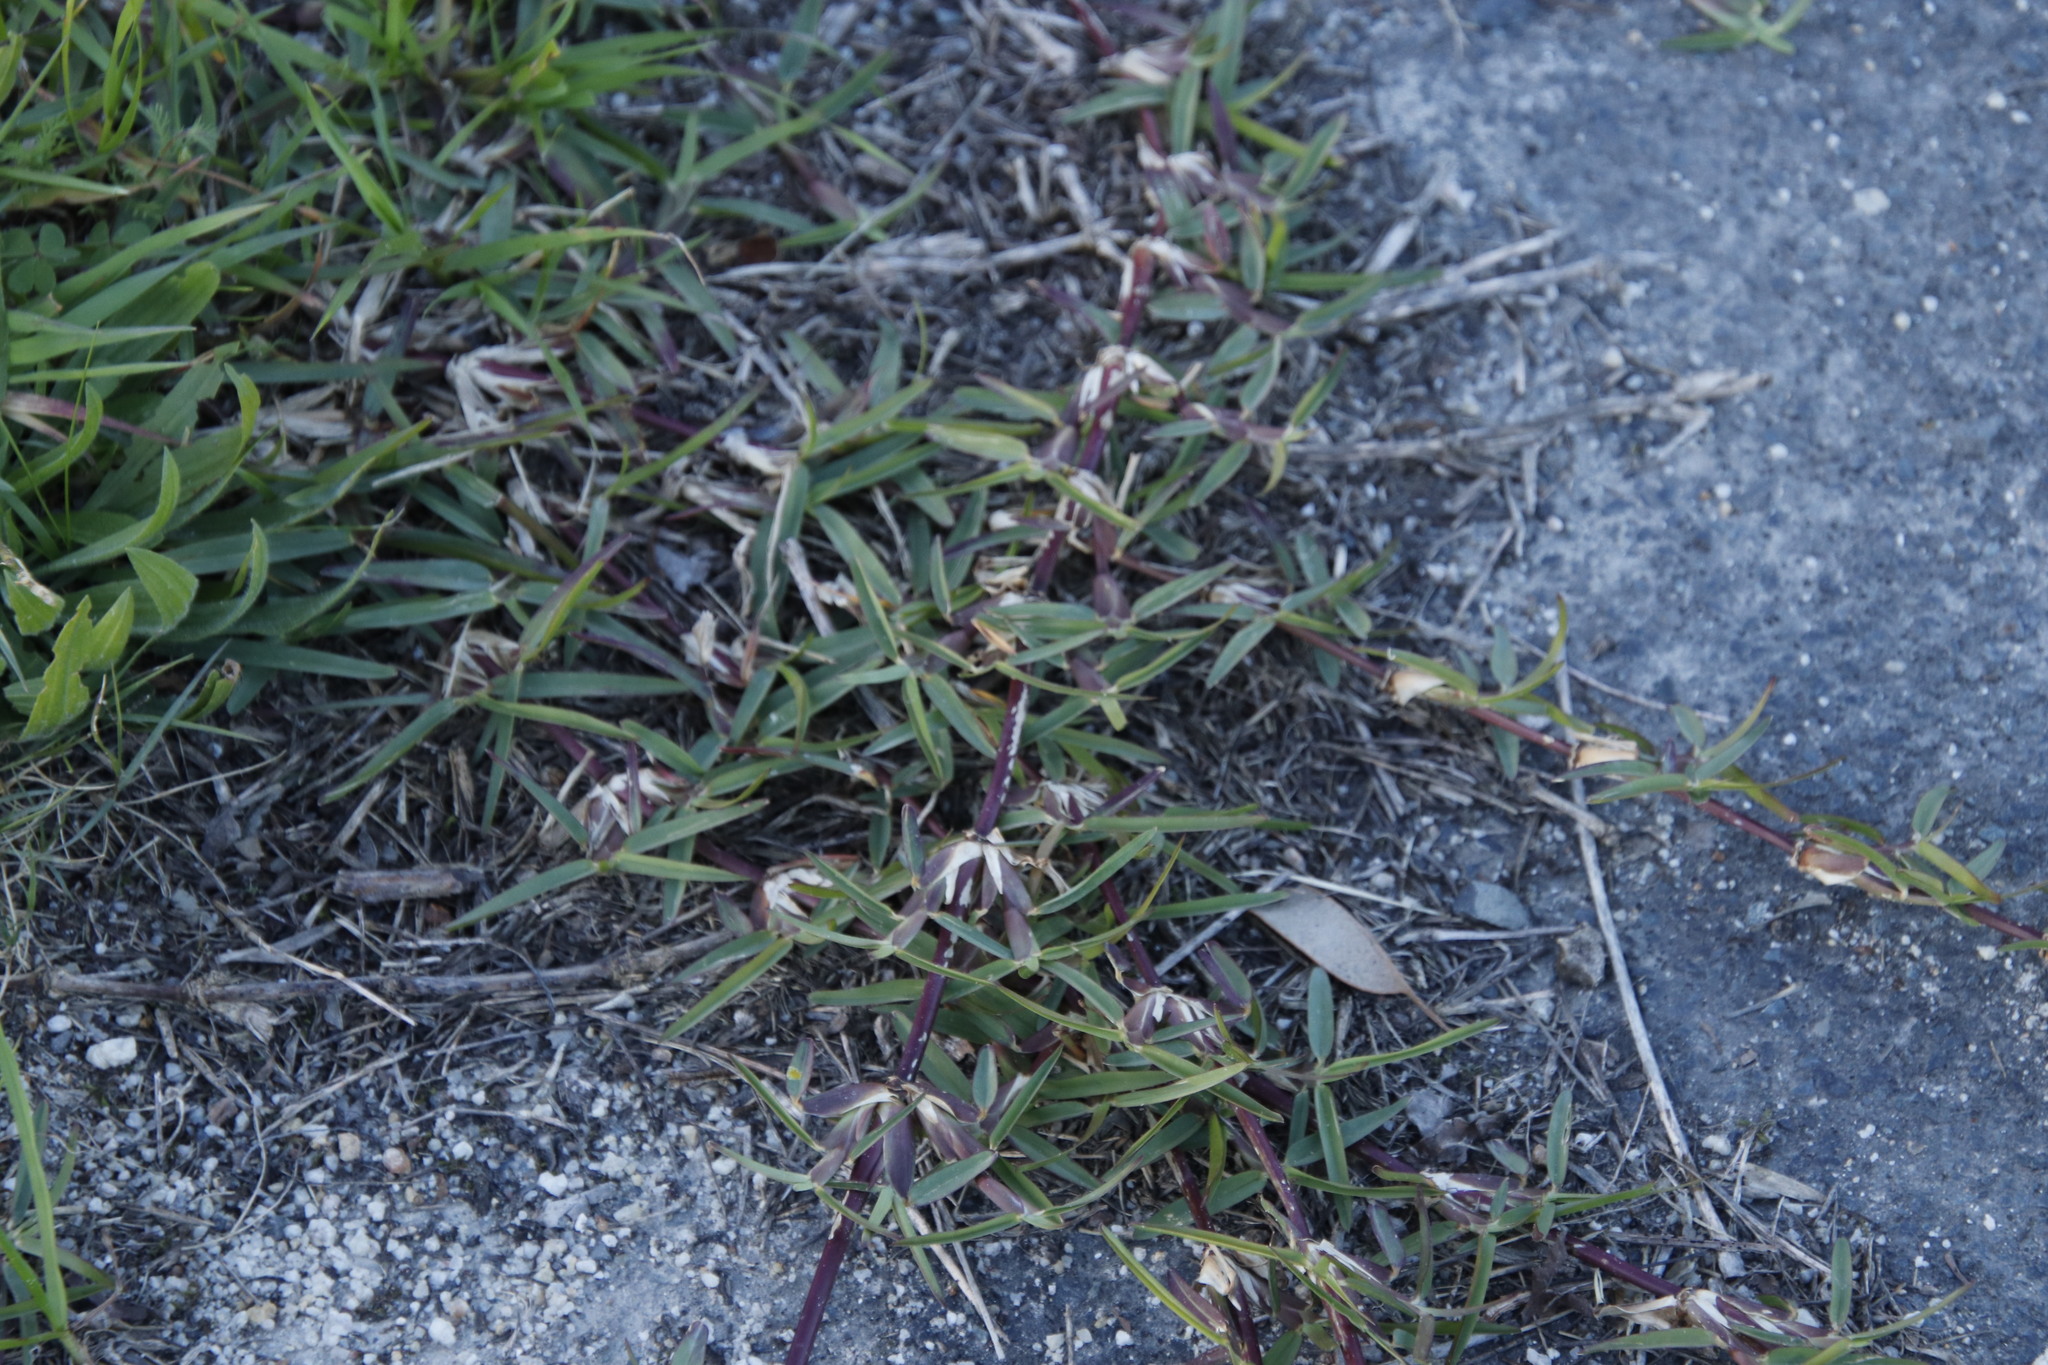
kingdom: Plantae
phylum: Tracheophyta
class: Liliopsida
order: Poales
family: Poaceae
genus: Stenotaphrum
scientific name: Stenotaphrum secundatum
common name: St. augustine grass
